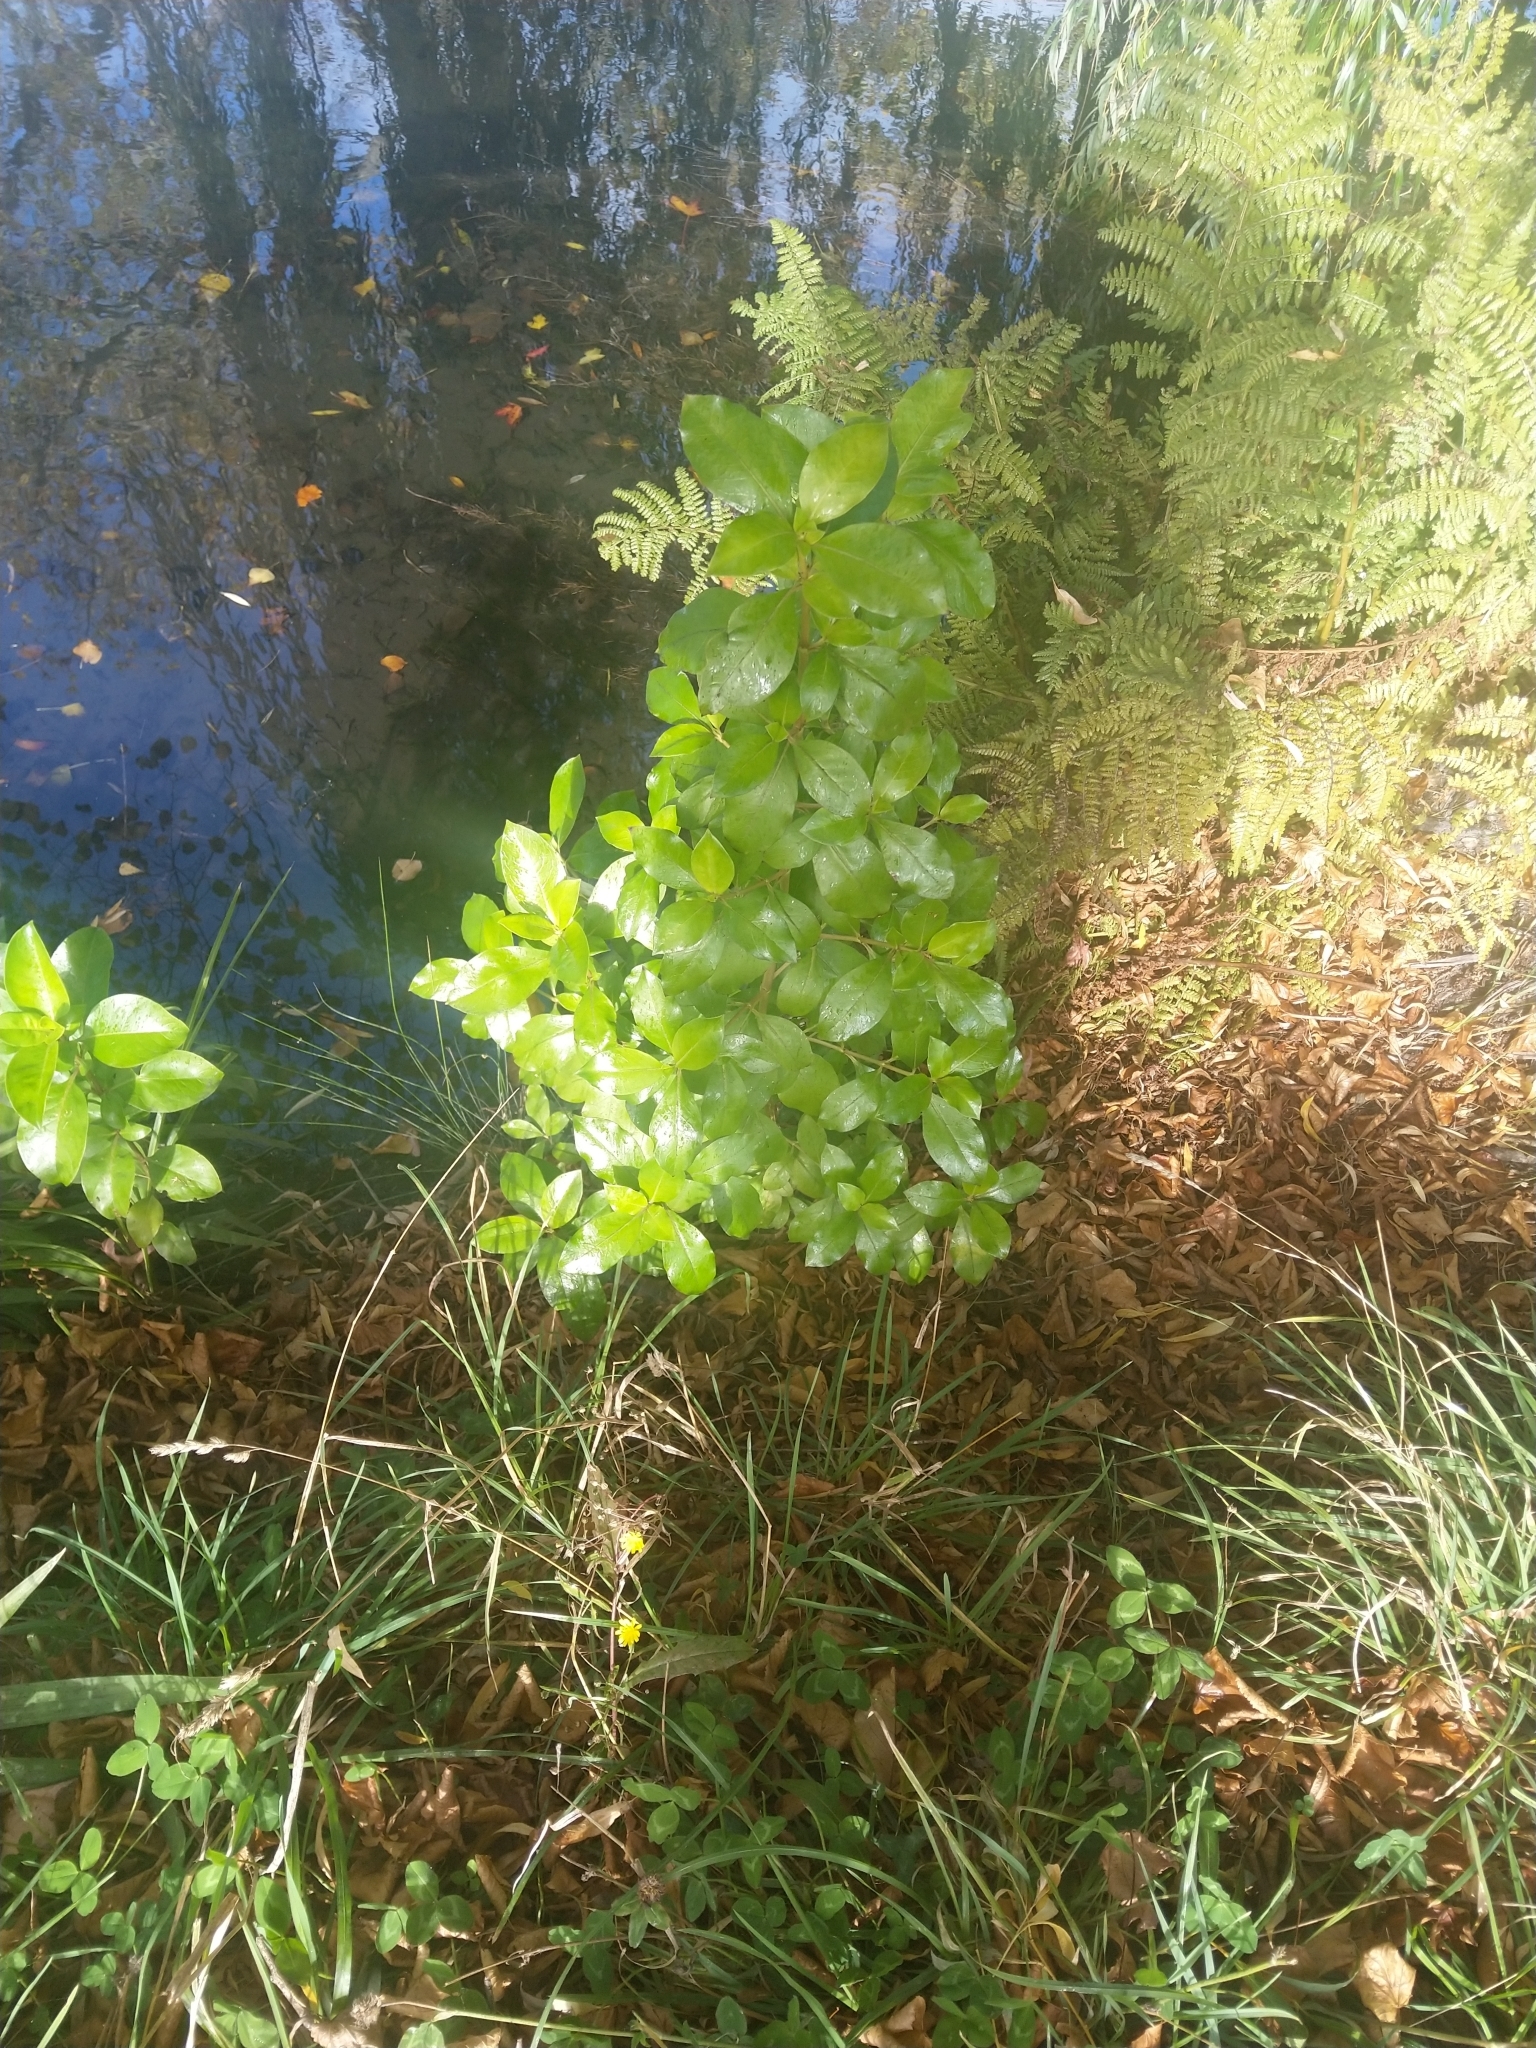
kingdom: Plantae
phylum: Tracheophyta
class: Magnoliopsida
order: Gentianales
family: Rubiaceae
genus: Coprosma
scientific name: Coprosma robusta
